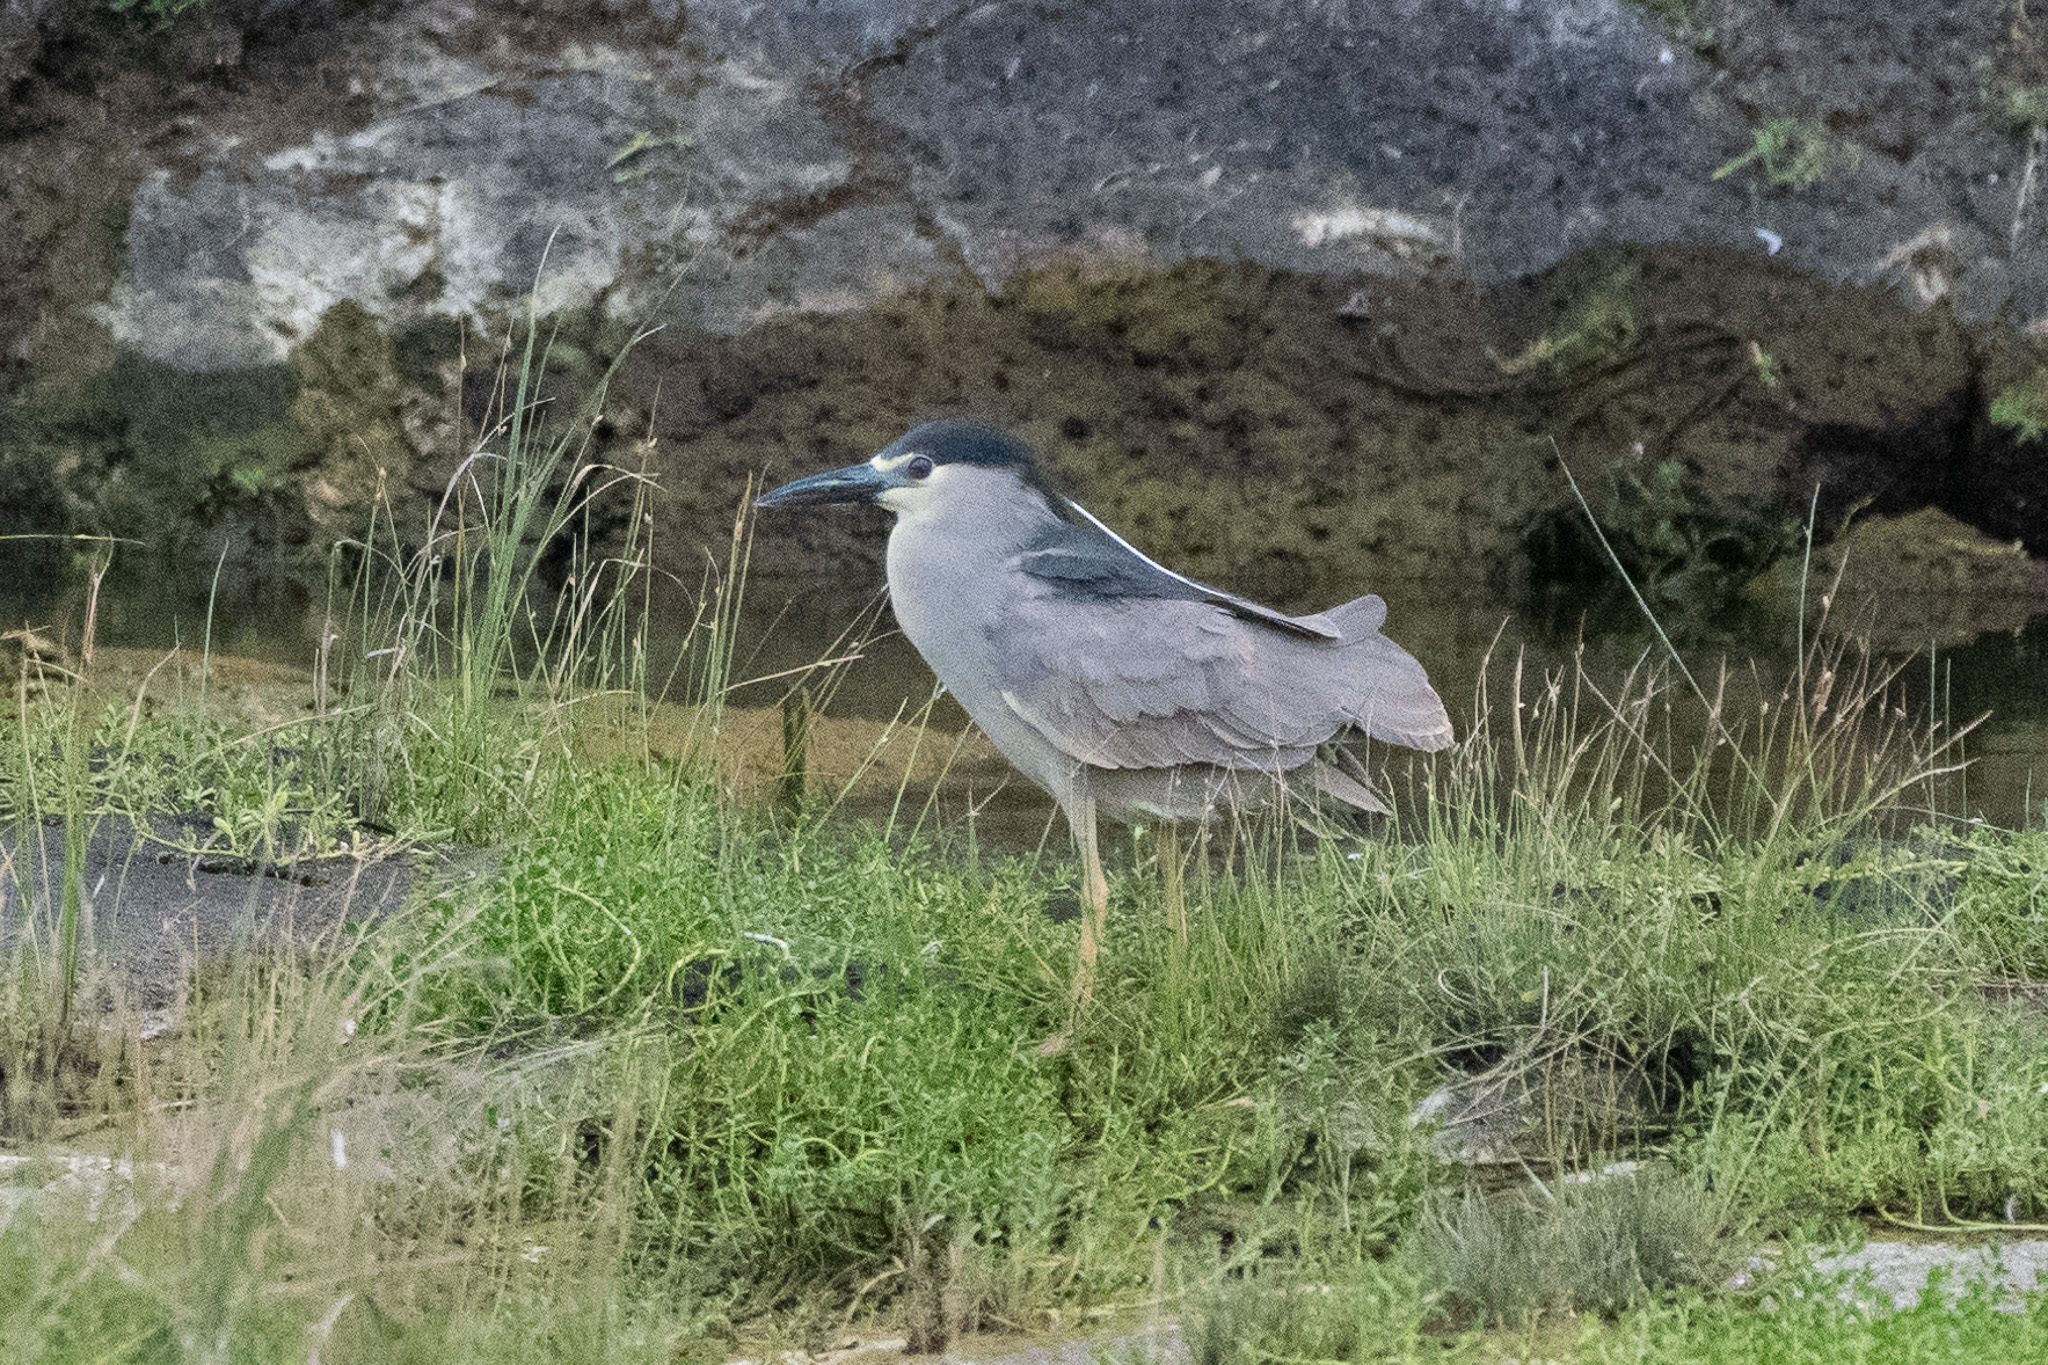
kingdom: Animalia
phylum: Chordata
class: Aves
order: Pelecaniformes
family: Ardeidae
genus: Nycticorax
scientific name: Nycticorax nycticorax
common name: Black-crowned night heron
